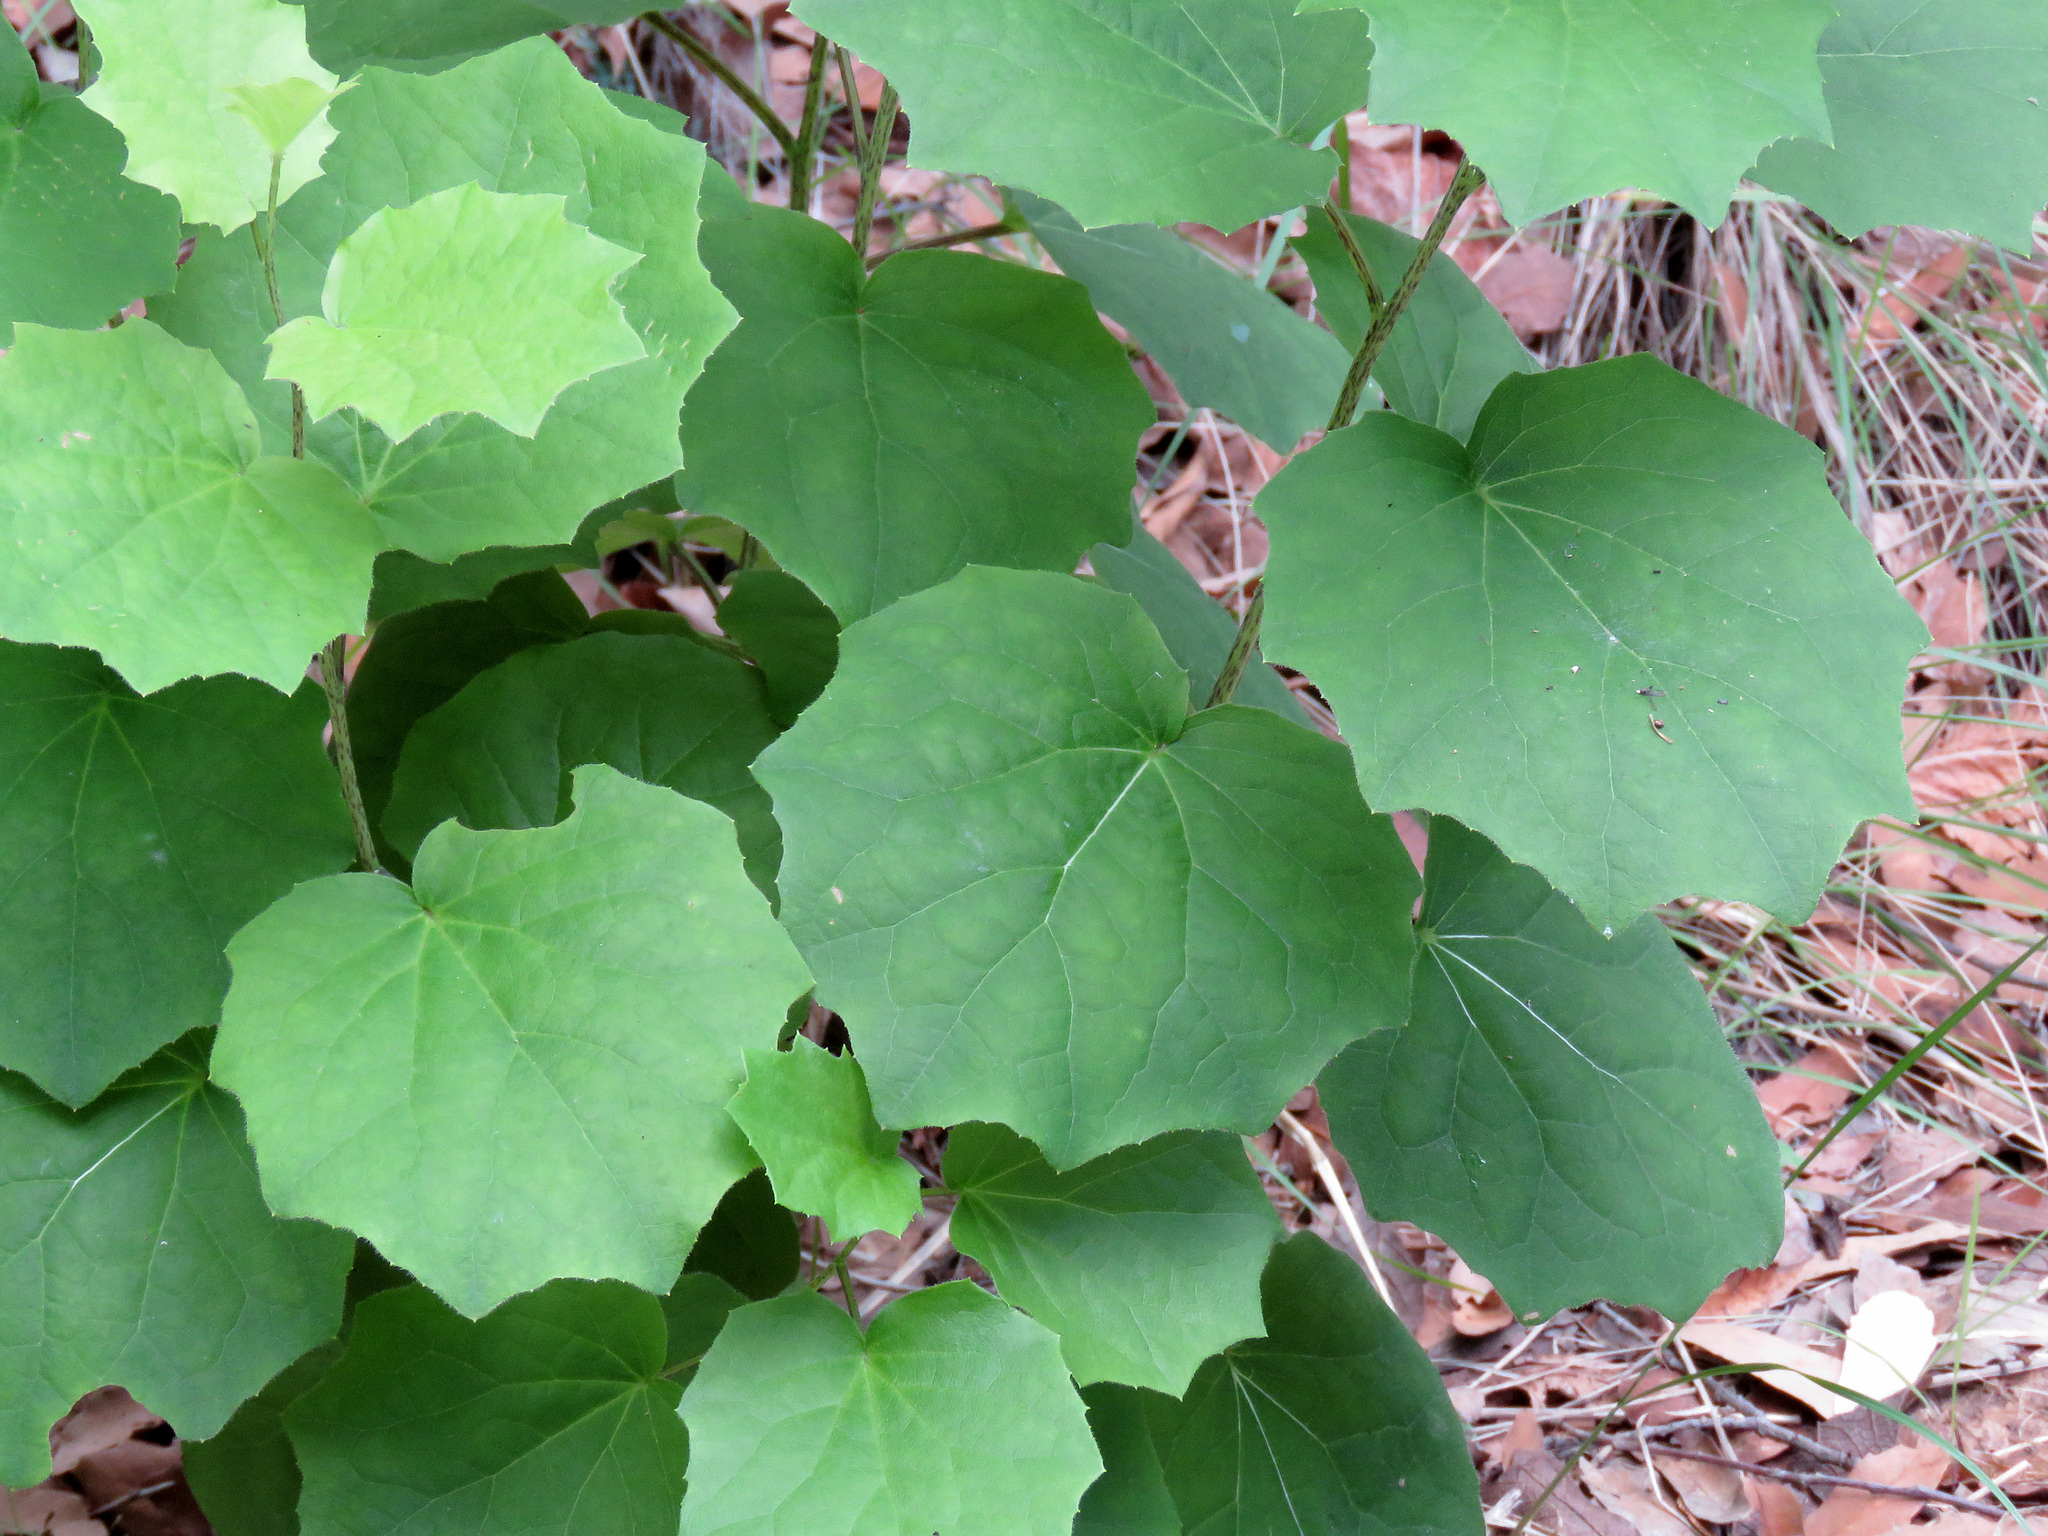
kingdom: Plantae
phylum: Tracheophyta
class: Magnoliopsida
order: Asterales
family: Asteraceae
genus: Roldana
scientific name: Roldana hartwegii
